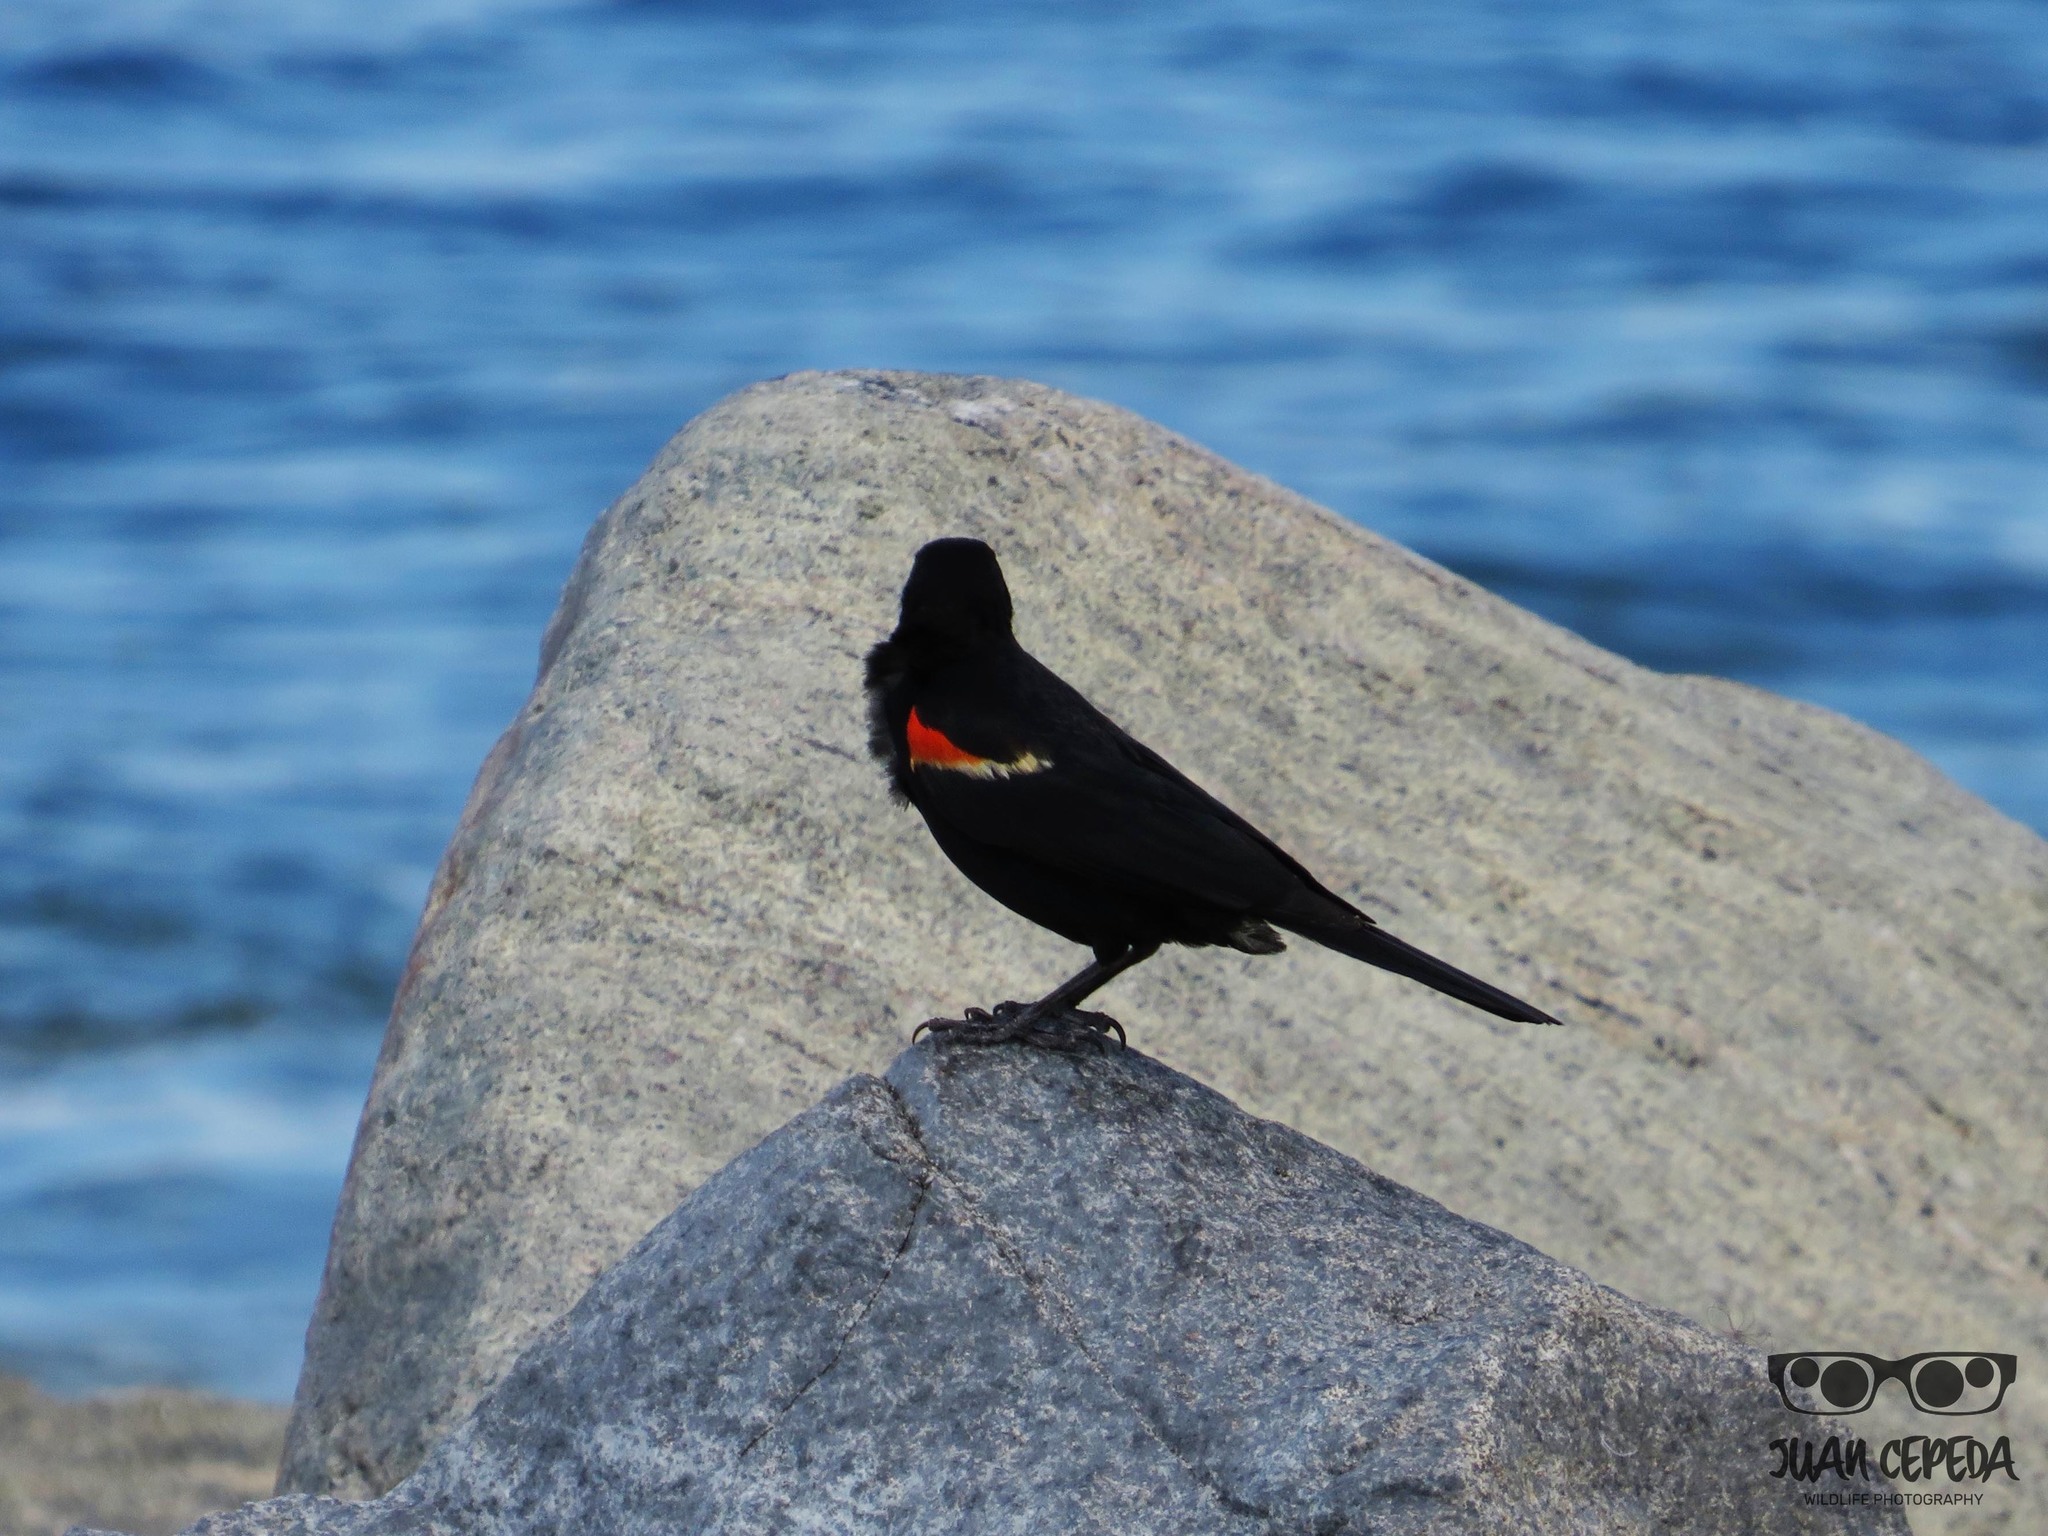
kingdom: Animalia
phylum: Chordata
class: Aves
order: Passeriformes
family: Icteridae
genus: Agelaius
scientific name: Agelaius phoeniceus
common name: Red-winged blackbird
